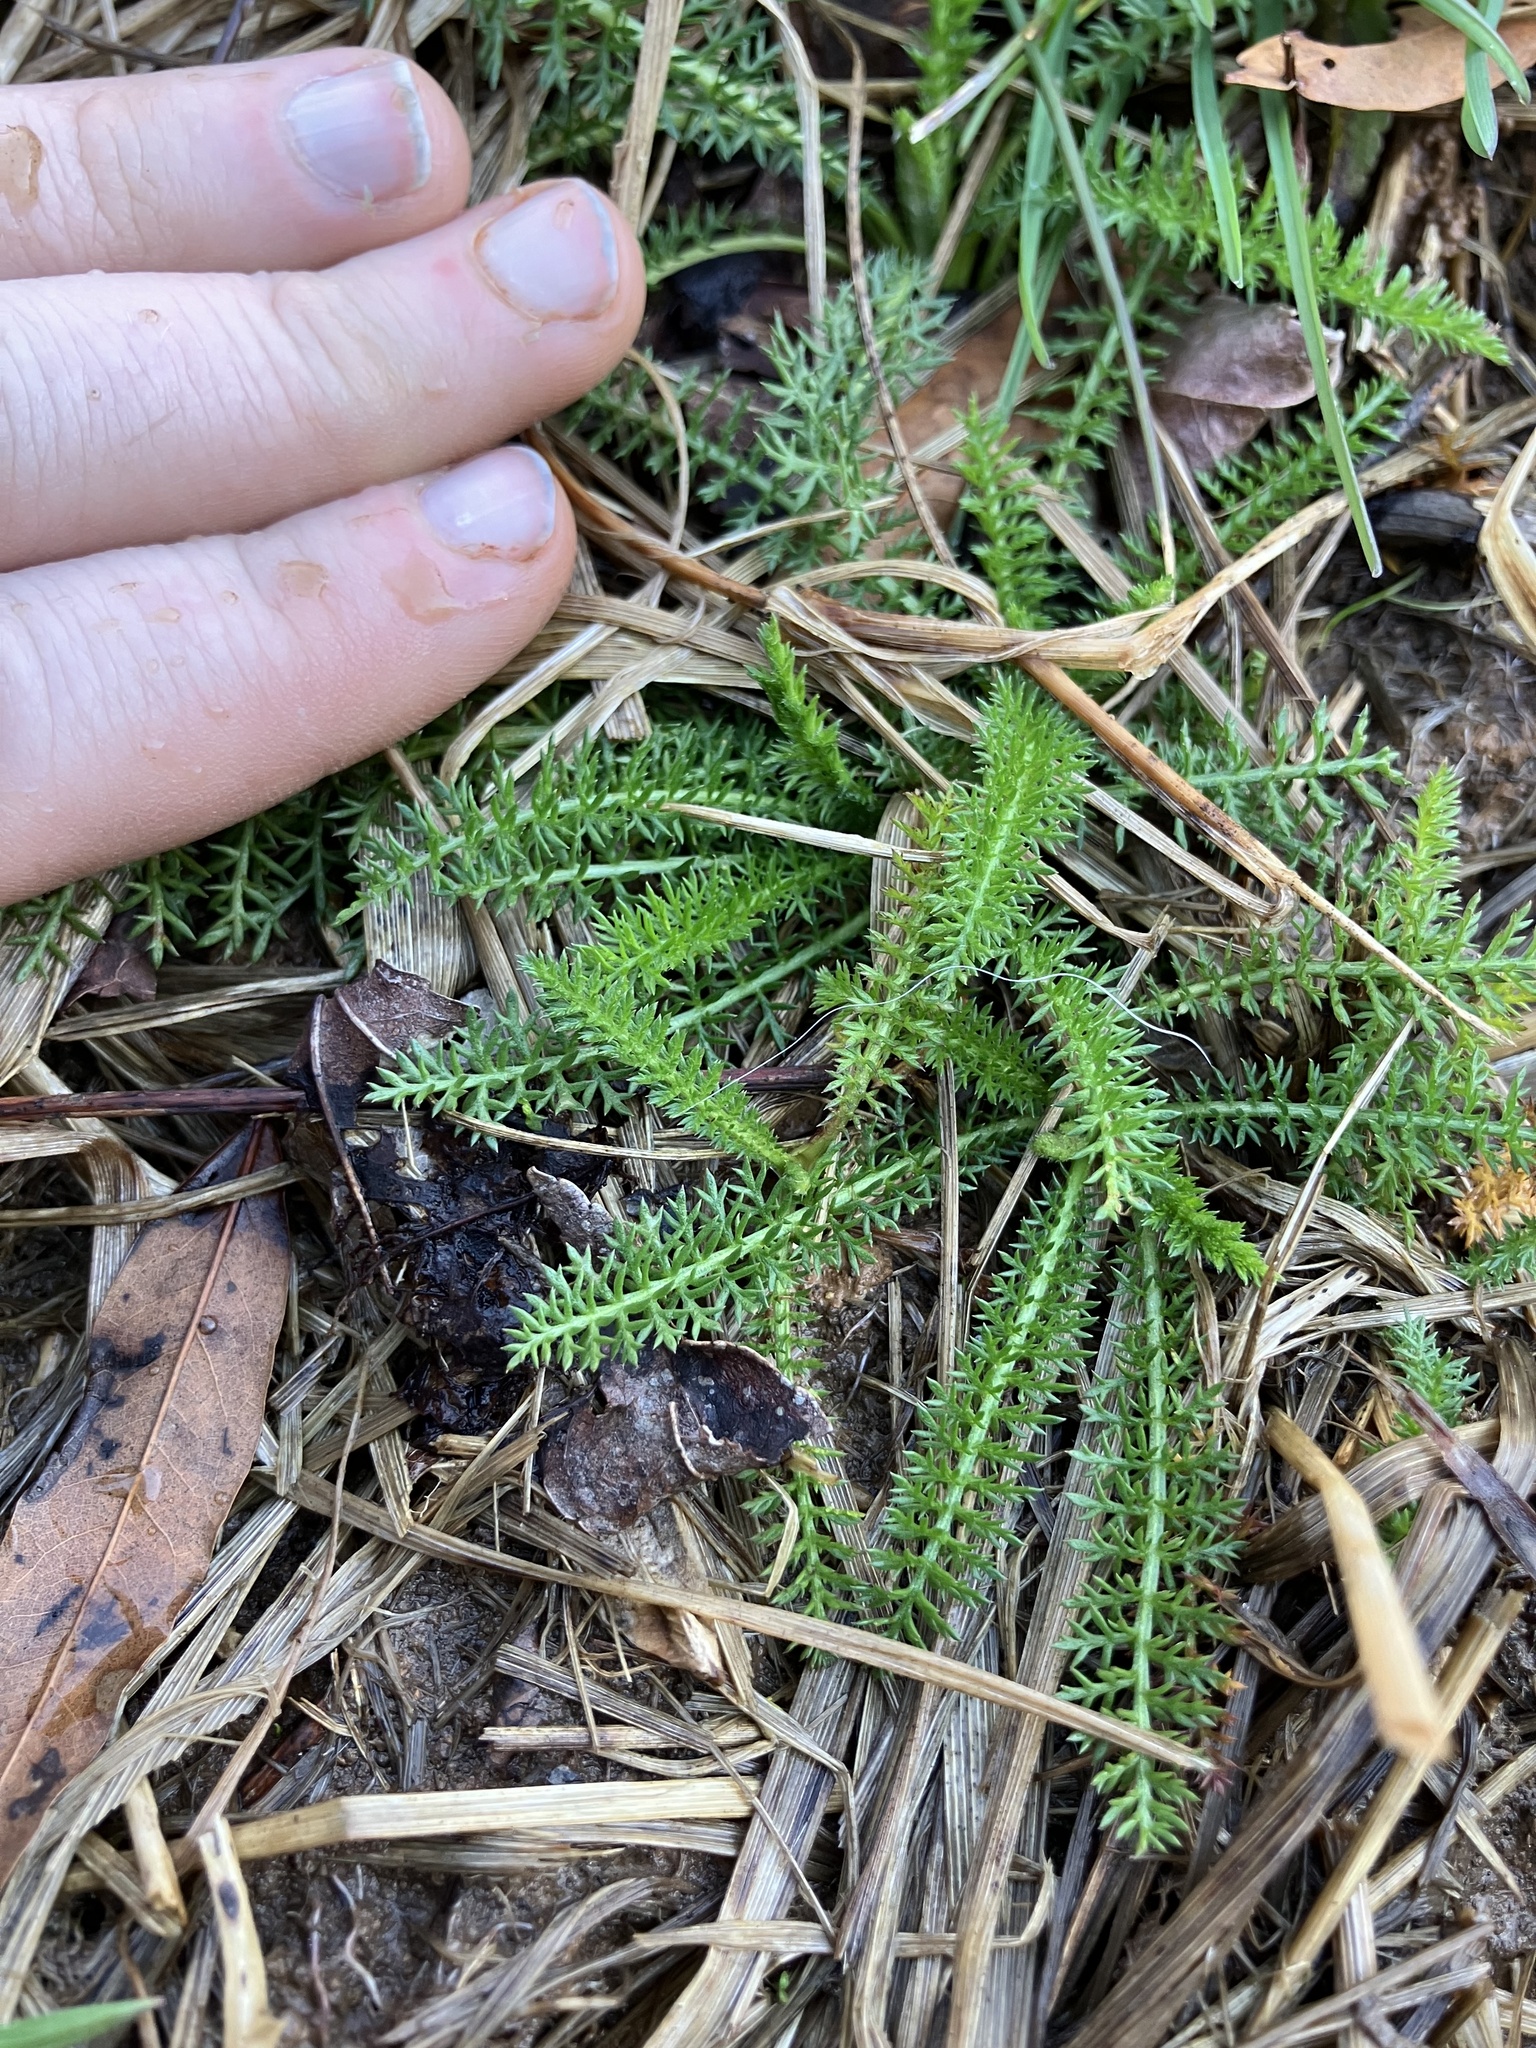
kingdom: Plantae
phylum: Tracheophyta
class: Magnoliopsida
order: Asterales
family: Asteraceae
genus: Achillea
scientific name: Achillea millefolium
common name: Yarrow
